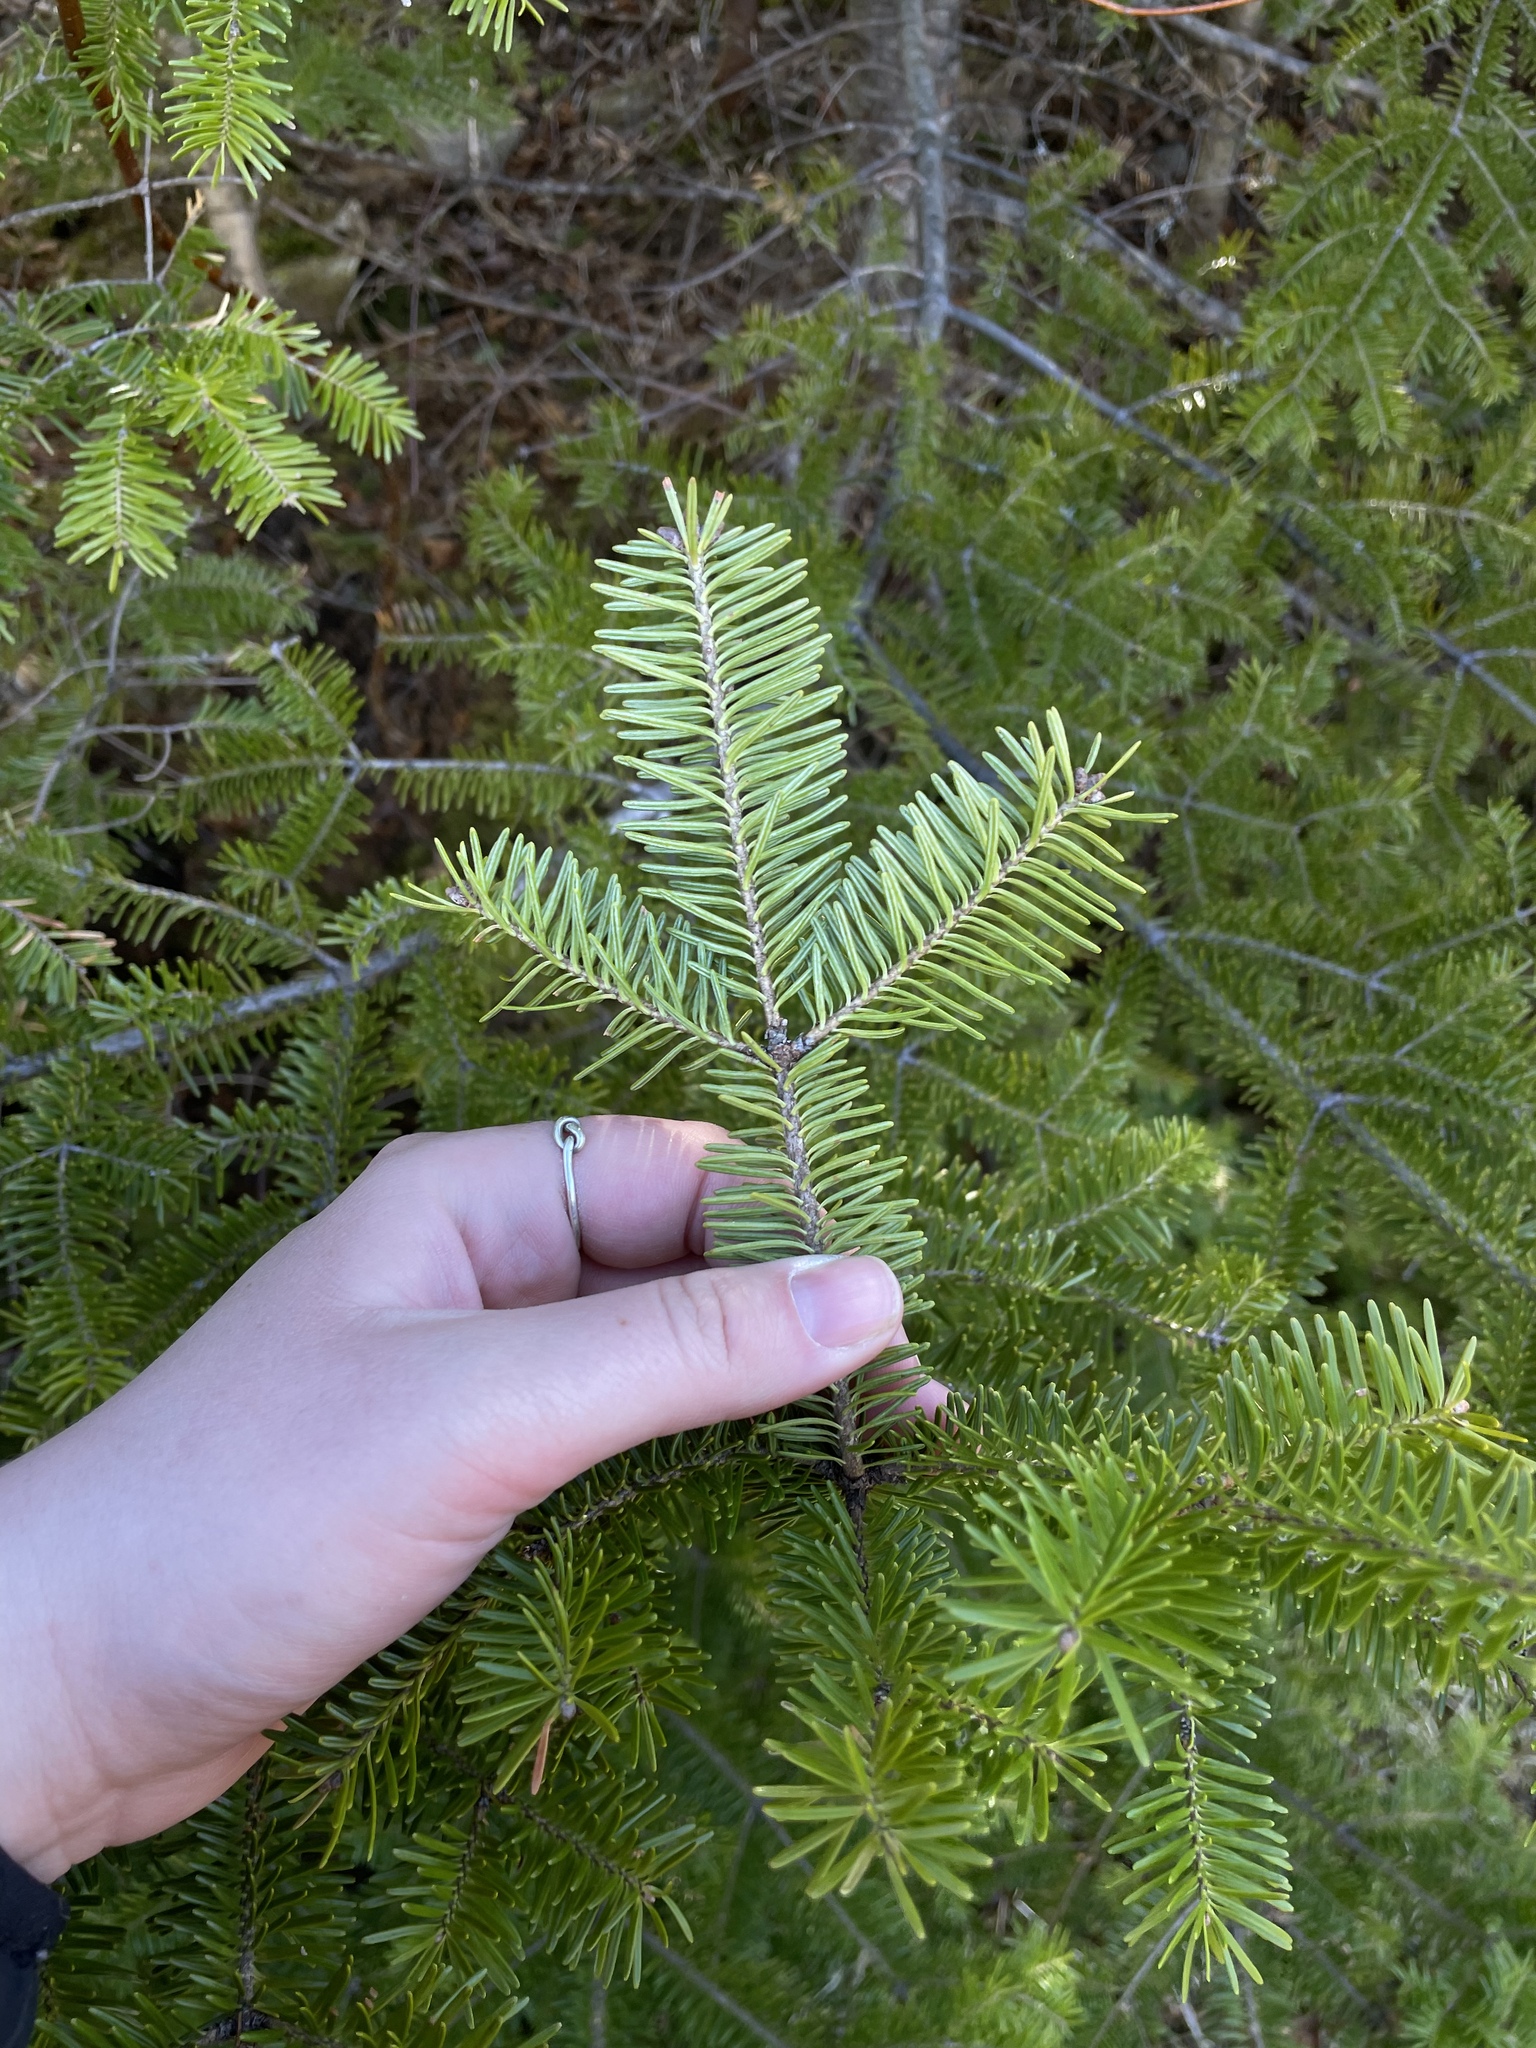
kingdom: Plantae
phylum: Tracheophyta
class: Pinopsida
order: Pinales
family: Pinaceae
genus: Abies
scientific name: Abies balsamea
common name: Balsam fir
